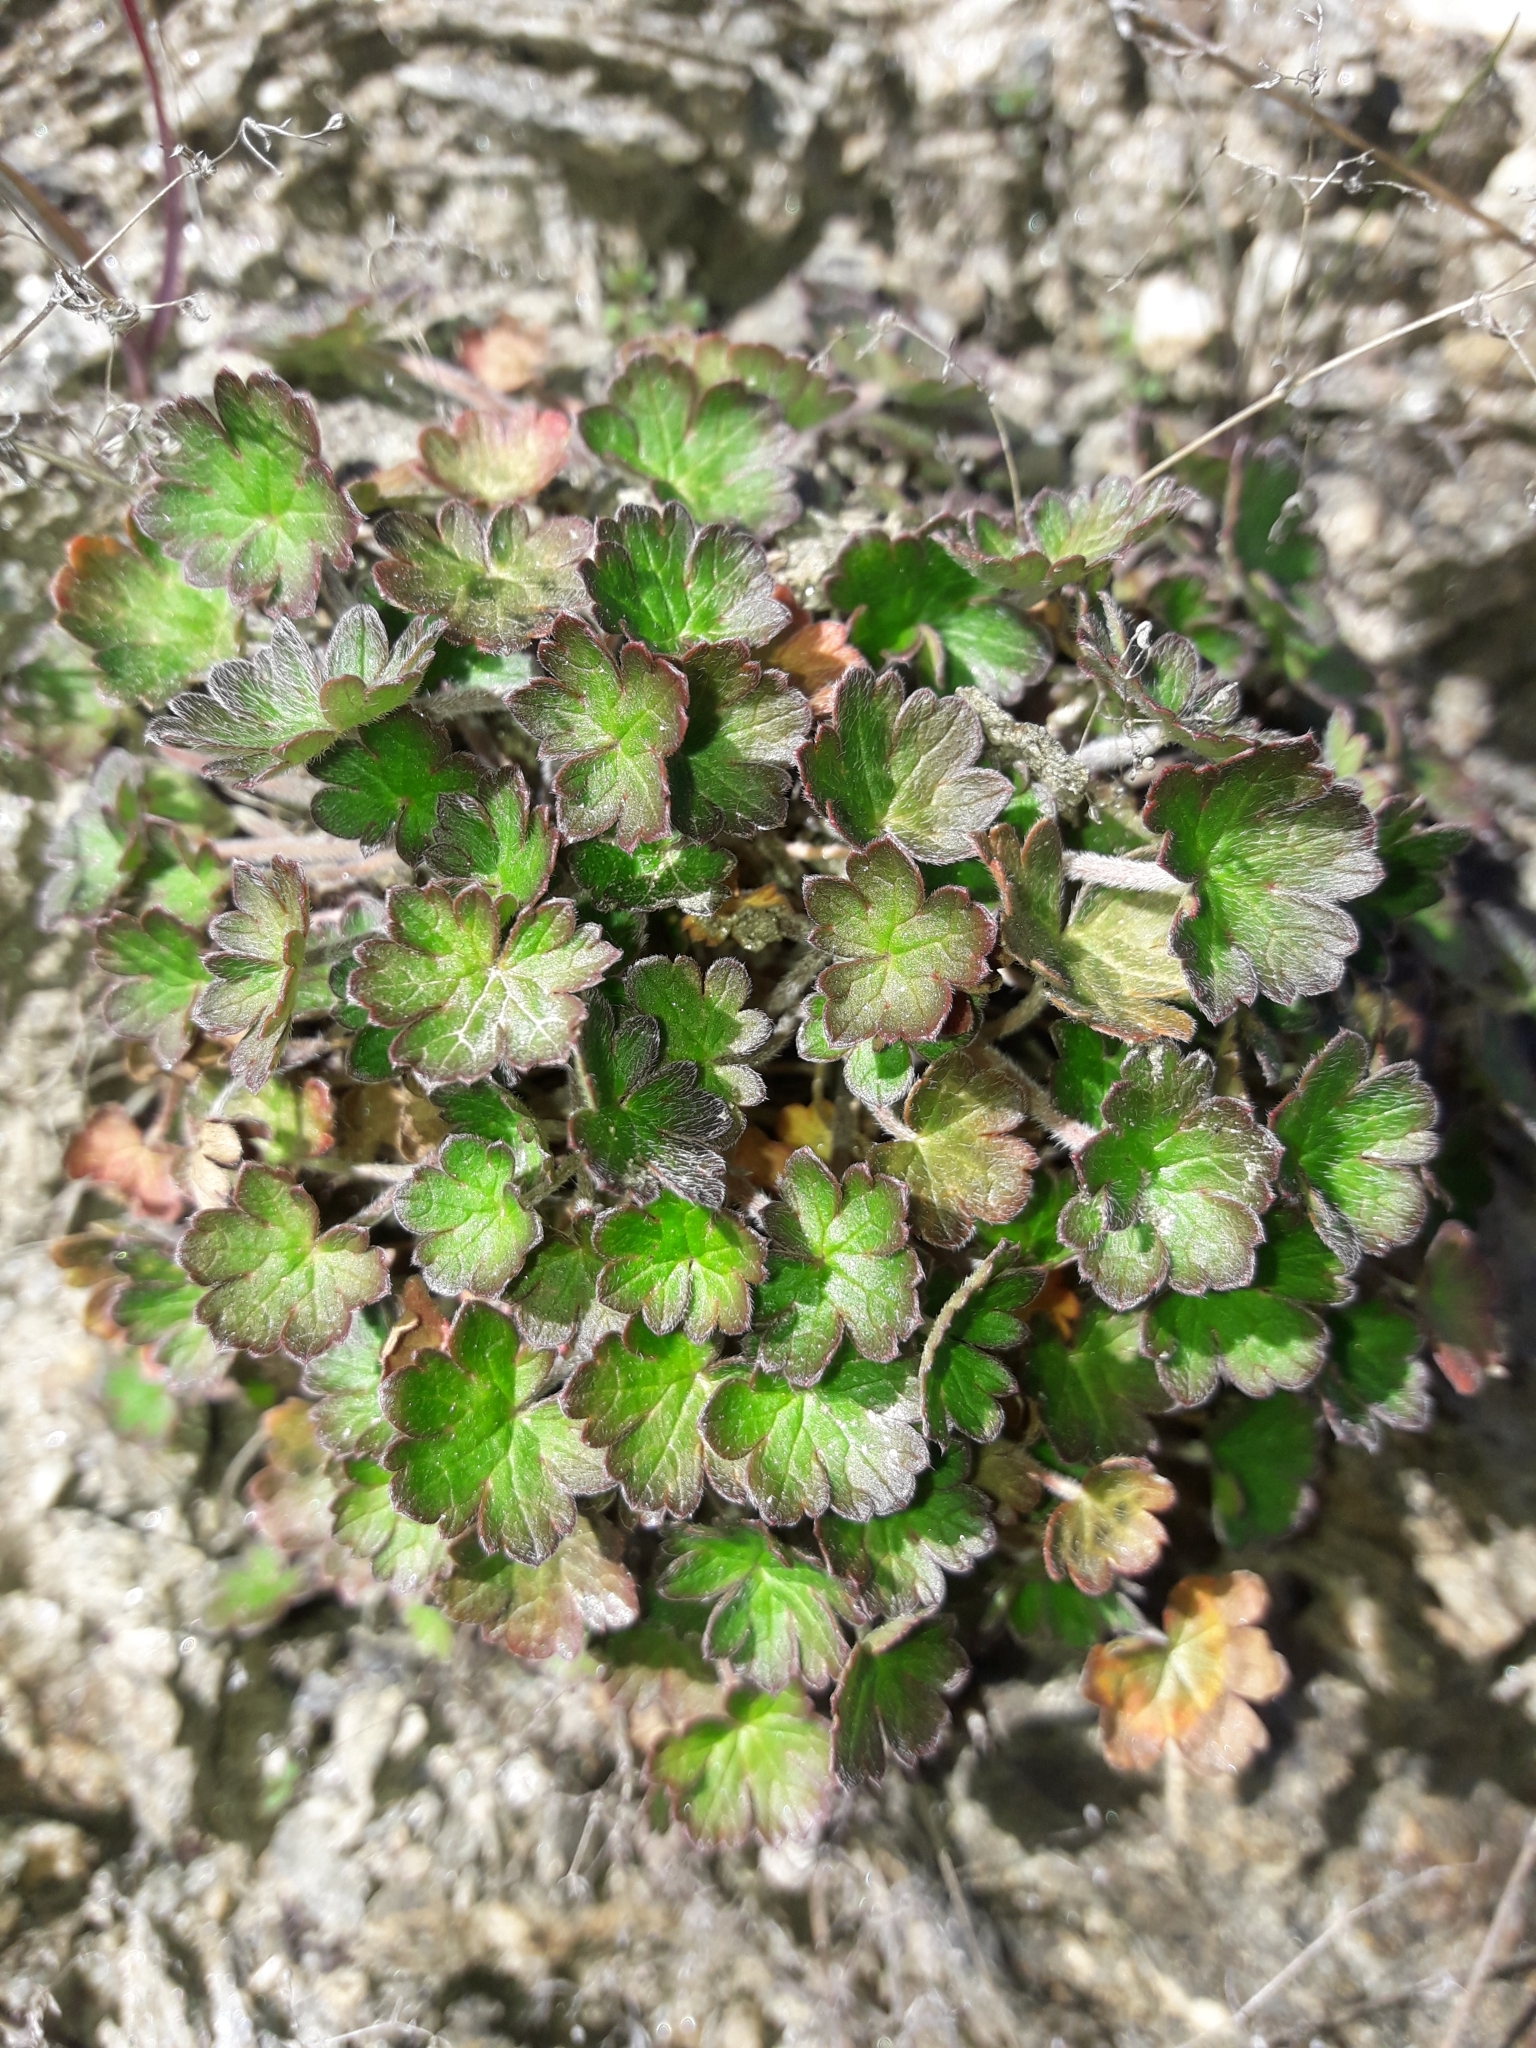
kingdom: Plantae
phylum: Tracheophyta
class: Magnoliopsida
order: Geraniales
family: Geraniaceae
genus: Geranium
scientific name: Geranium brevicaule
